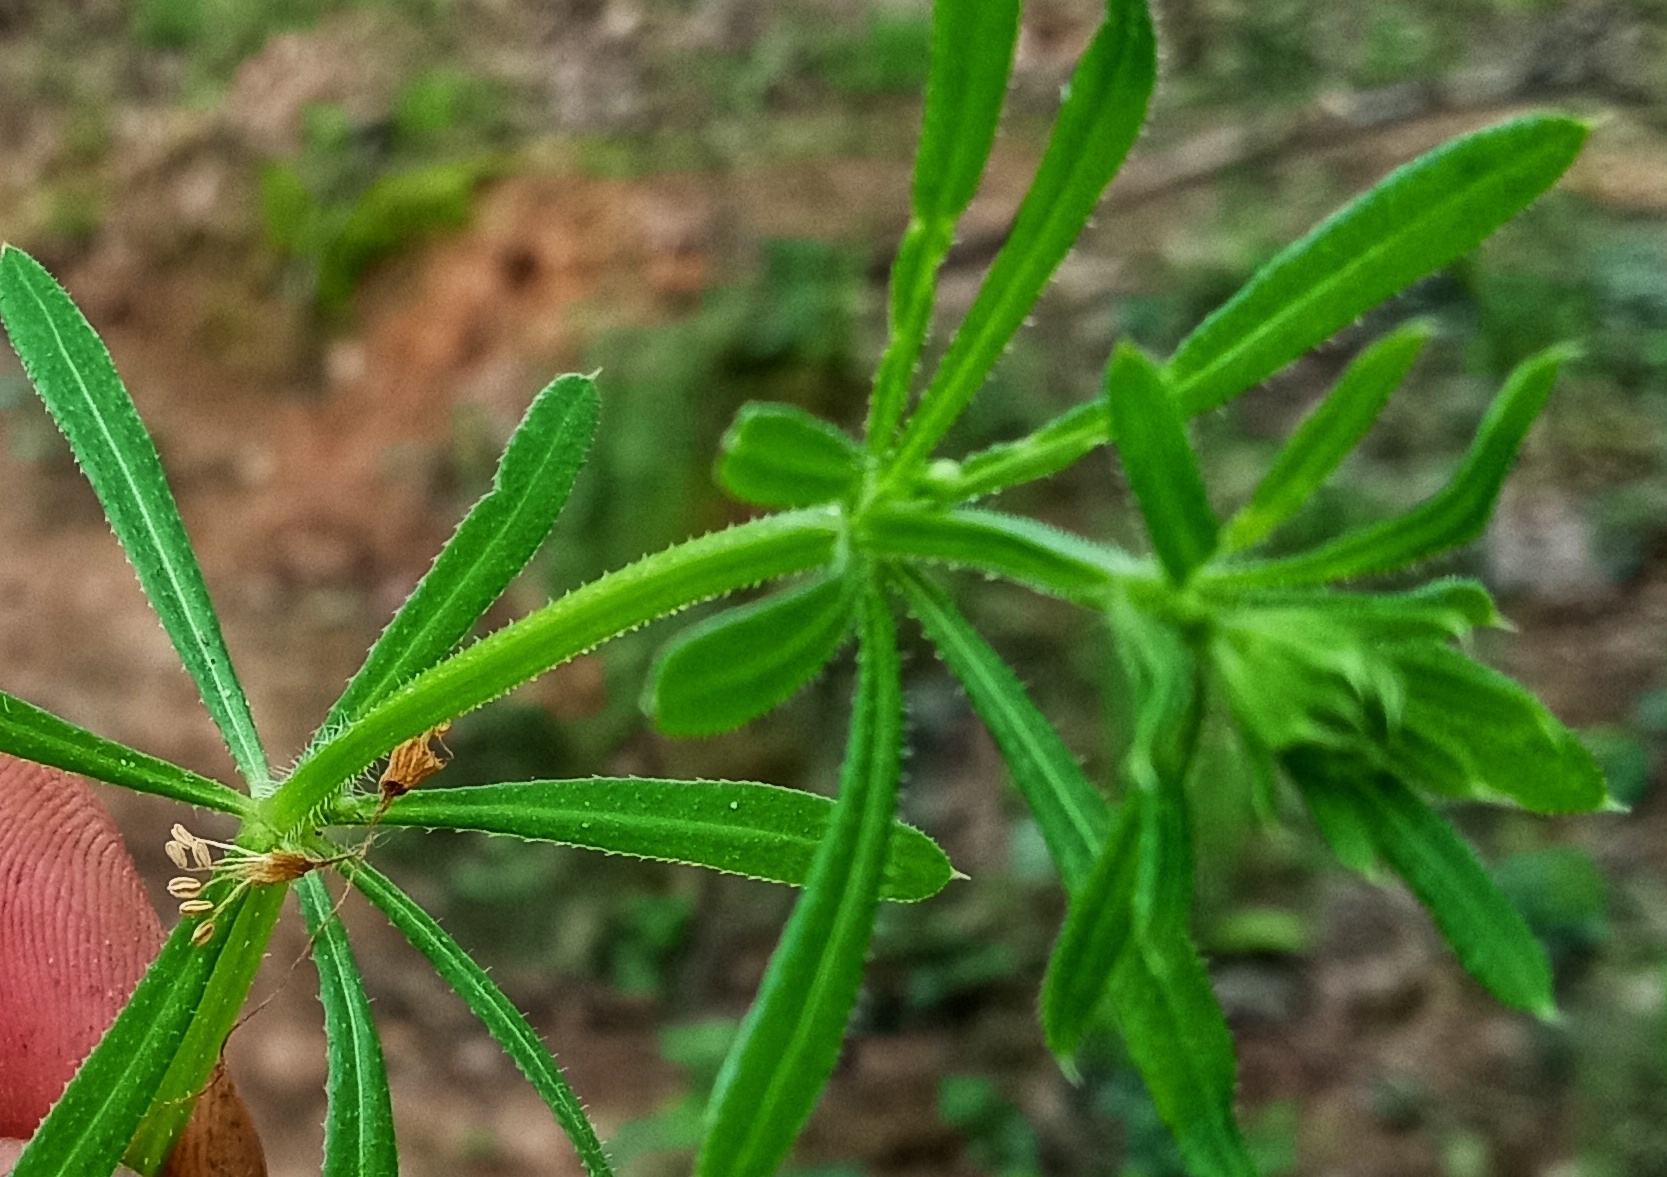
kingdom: Plantae
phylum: Tracheophyta
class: Magnoliopsida
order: Gentianales
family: Rubiaceae
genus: Galium
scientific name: Galium aparine
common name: Cleavers
